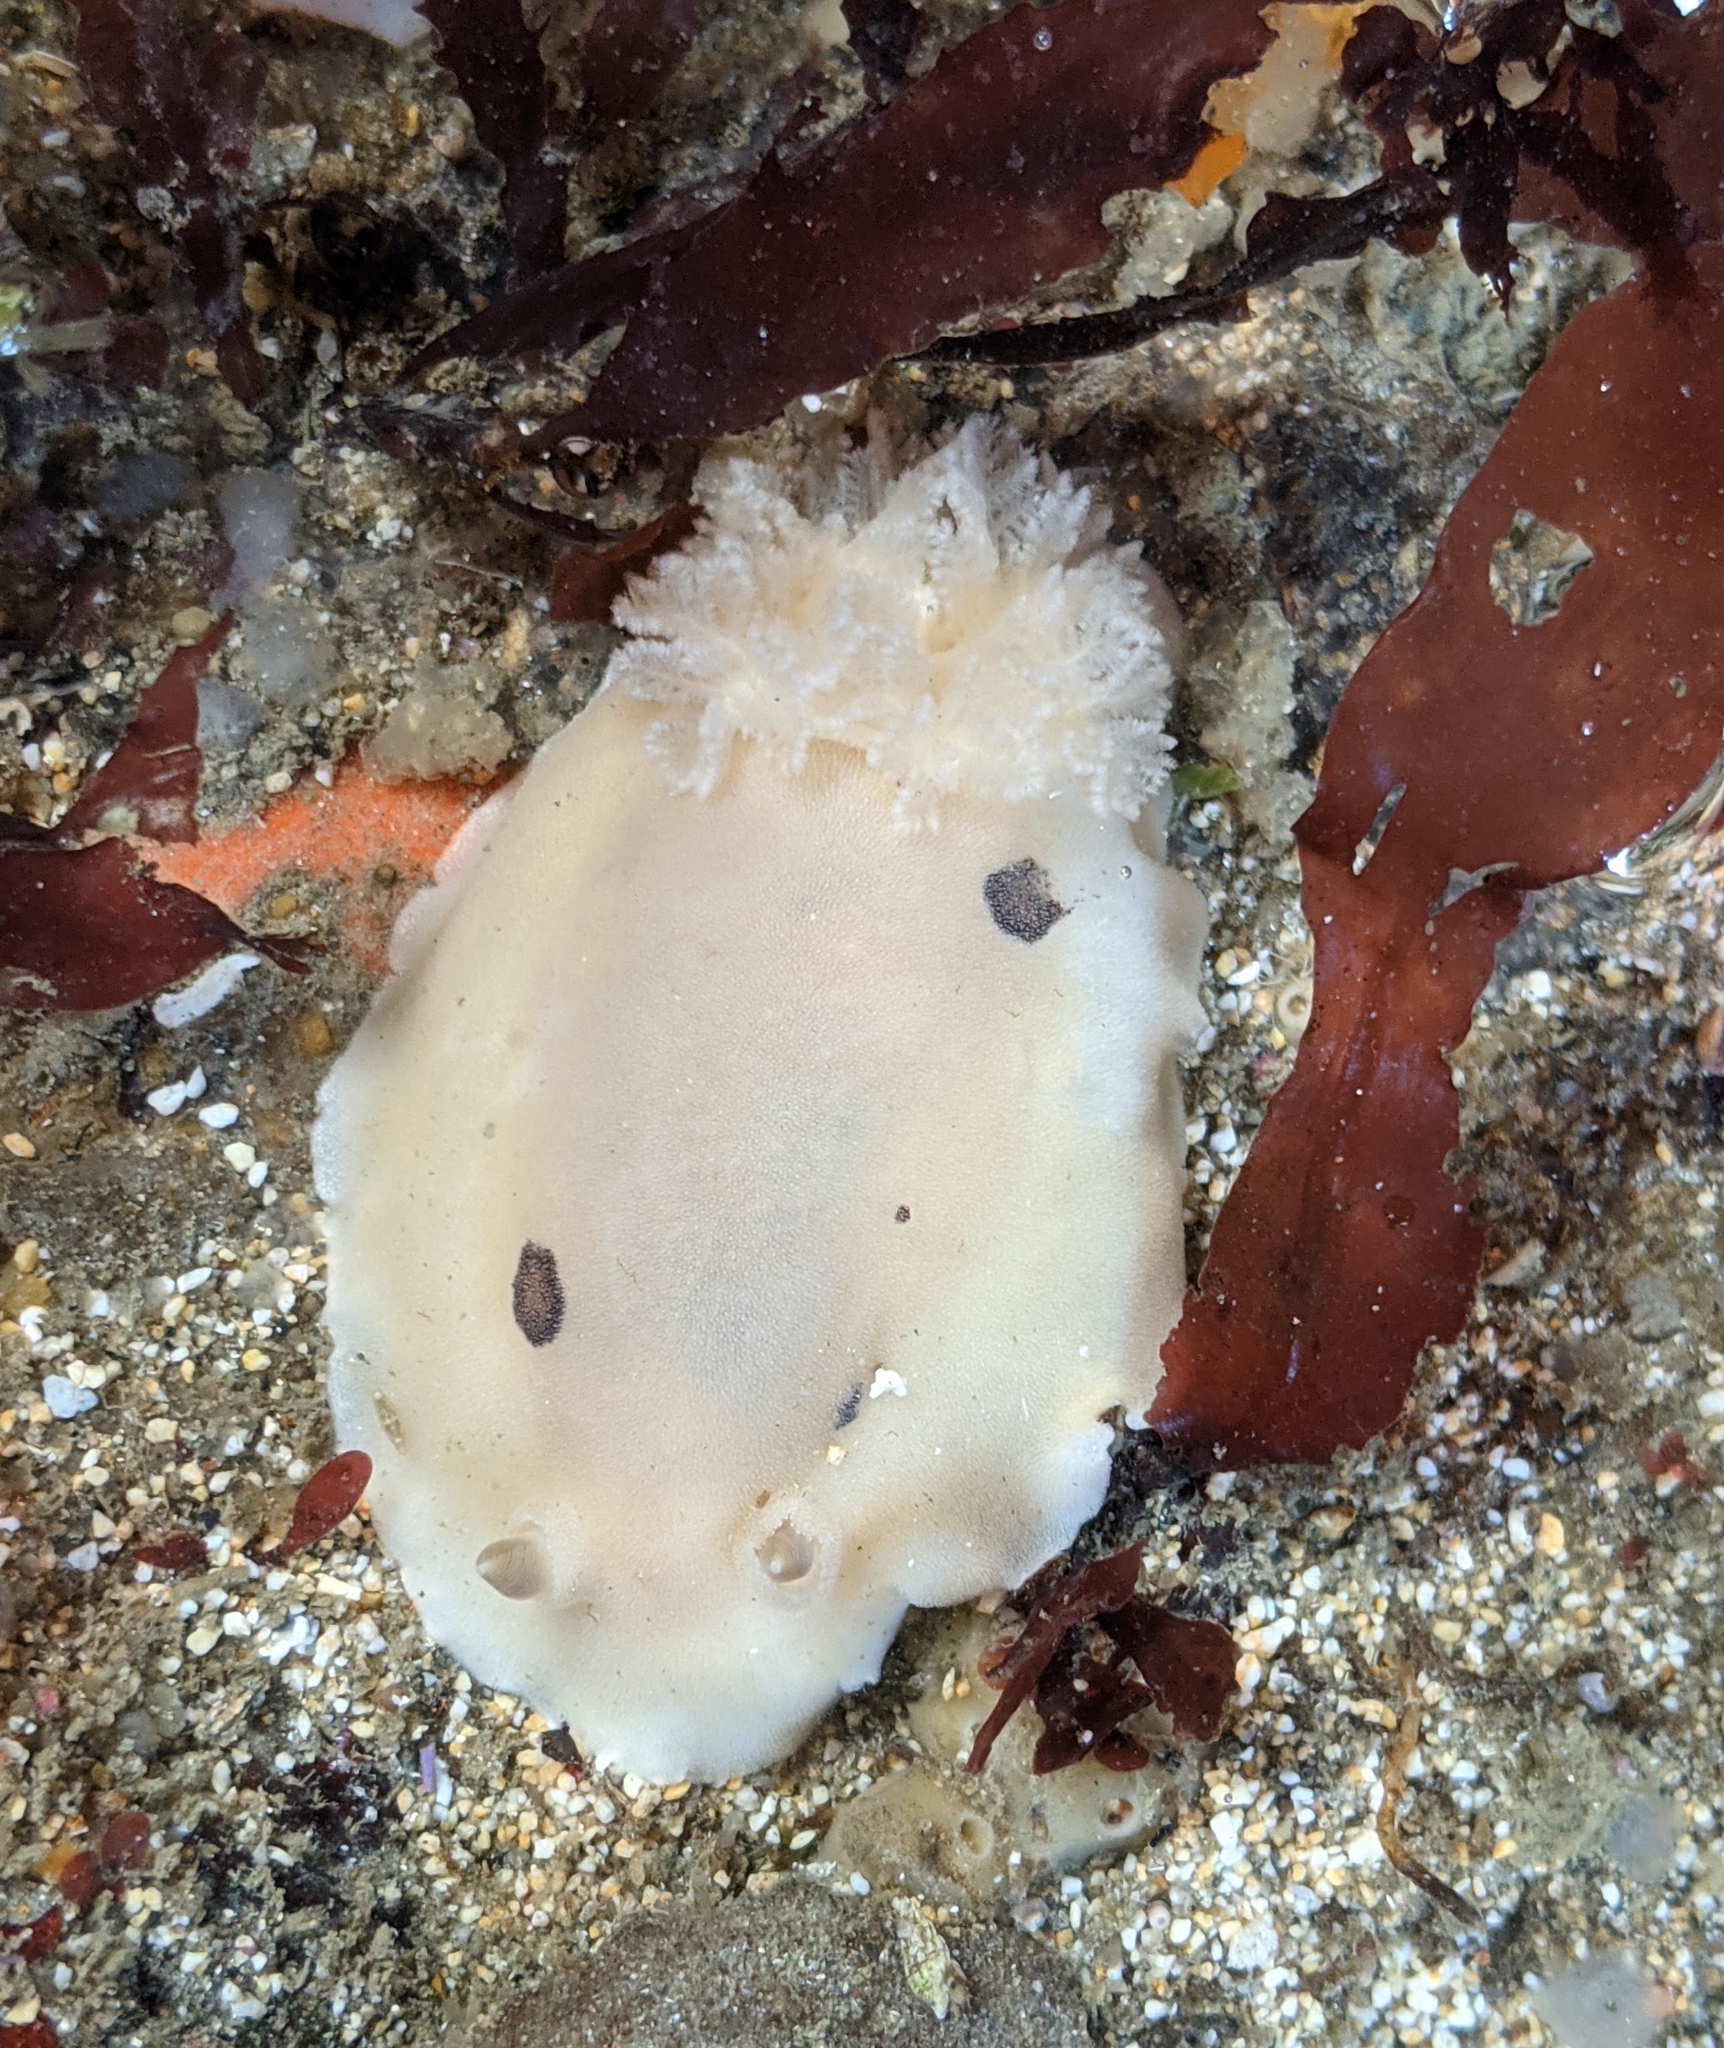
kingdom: Animalia
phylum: Mollusca
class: Gastropoda
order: Nudibranchia
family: Discodorididae
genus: Diaulula
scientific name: Diaulula sandiegensis
